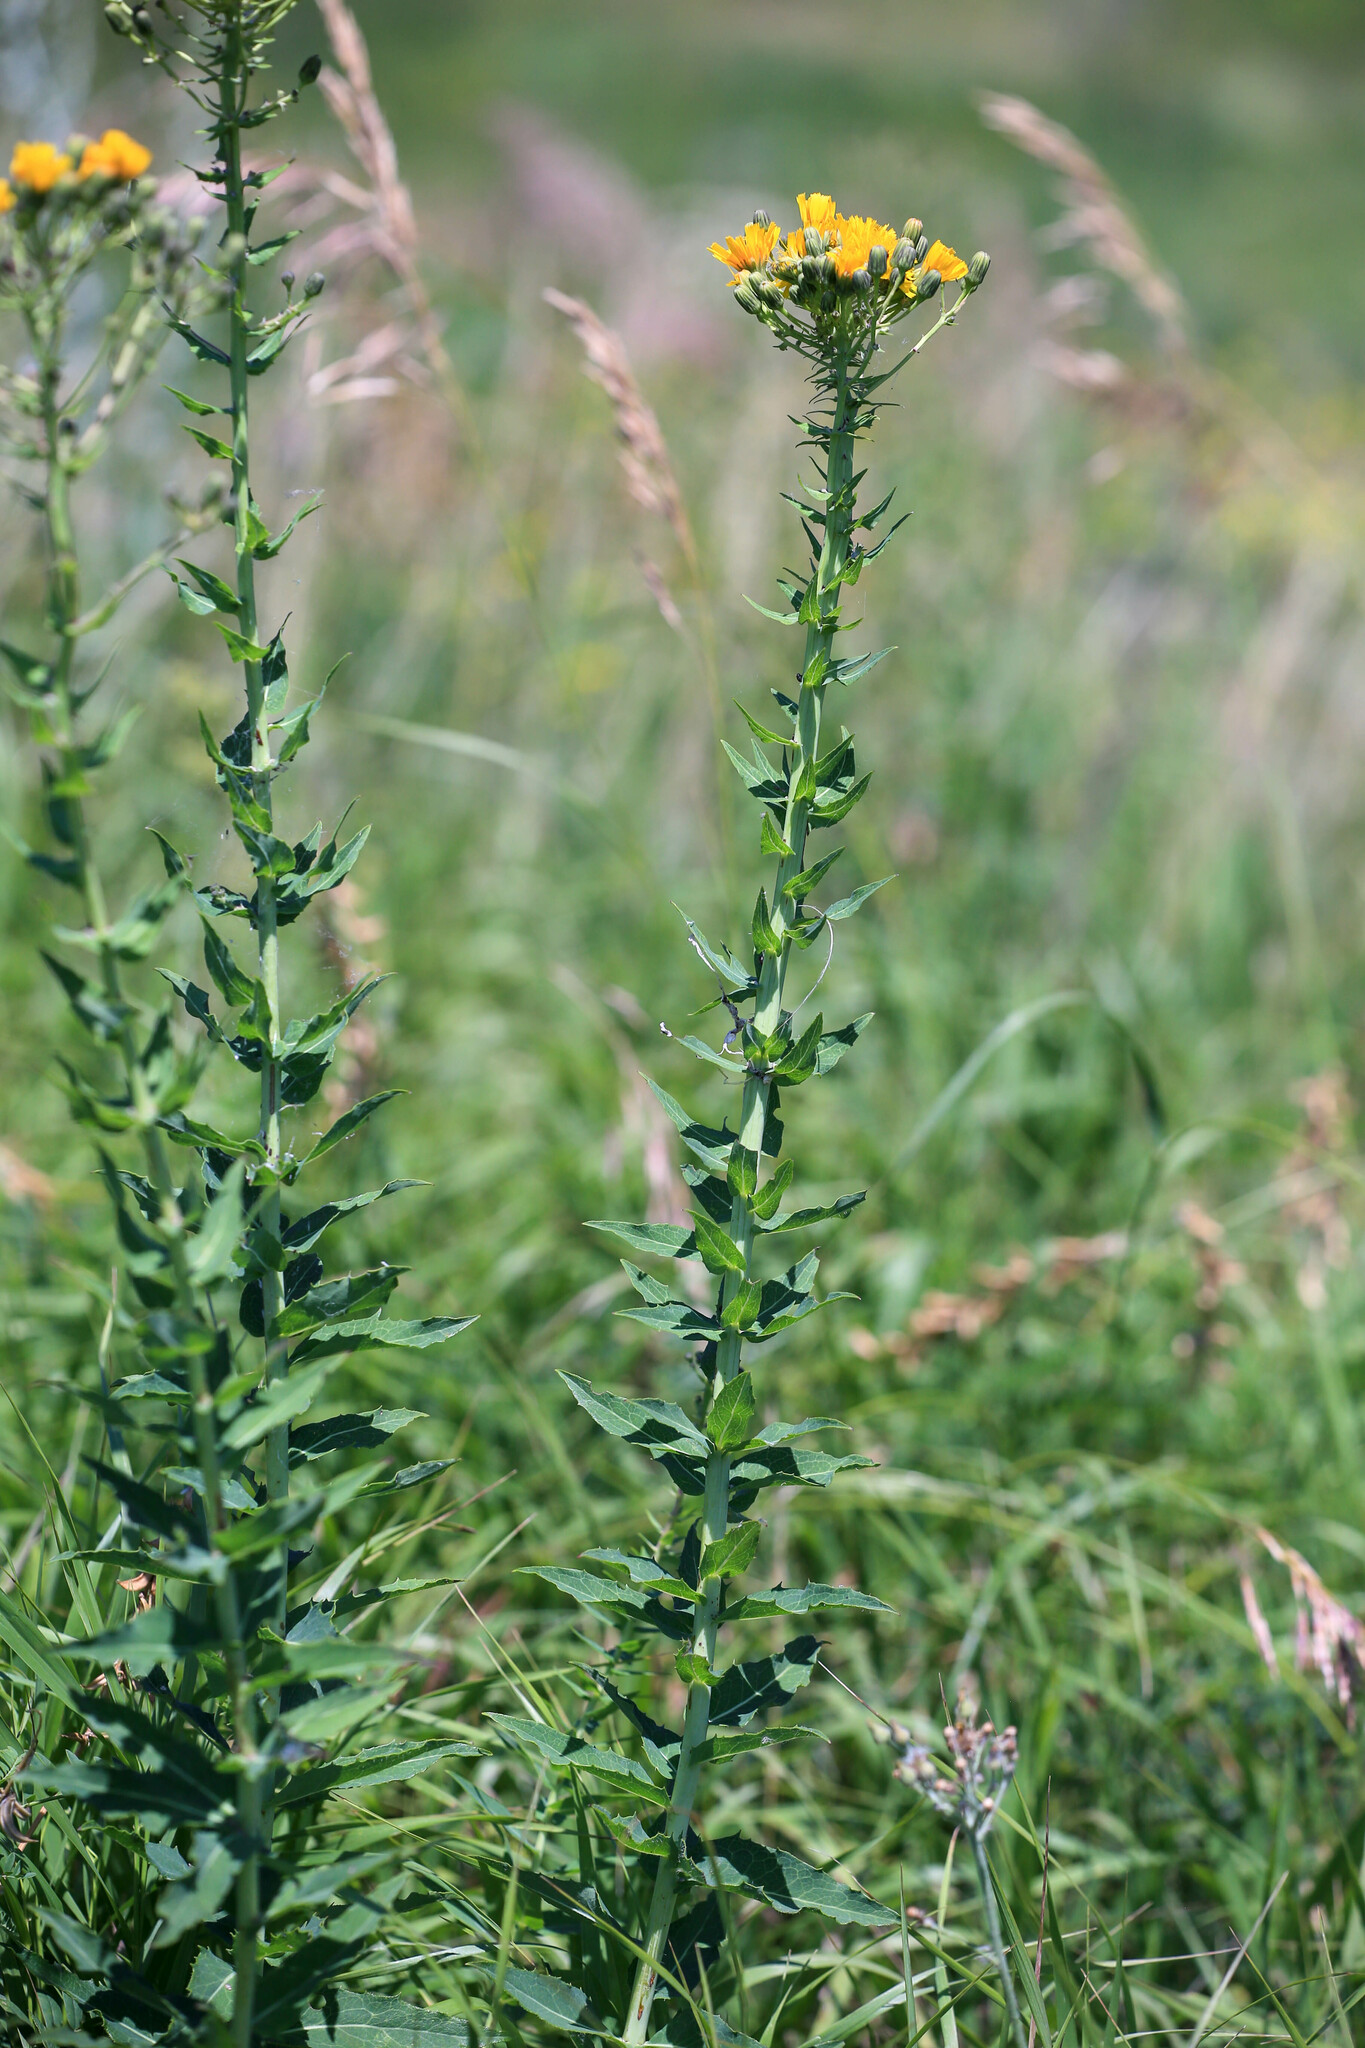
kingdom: Plantae
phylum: Tracheophyta
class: Magnoliopsida
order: Asterales
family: Asteraceae
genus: Hieracium
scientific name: Hieracium virosum
